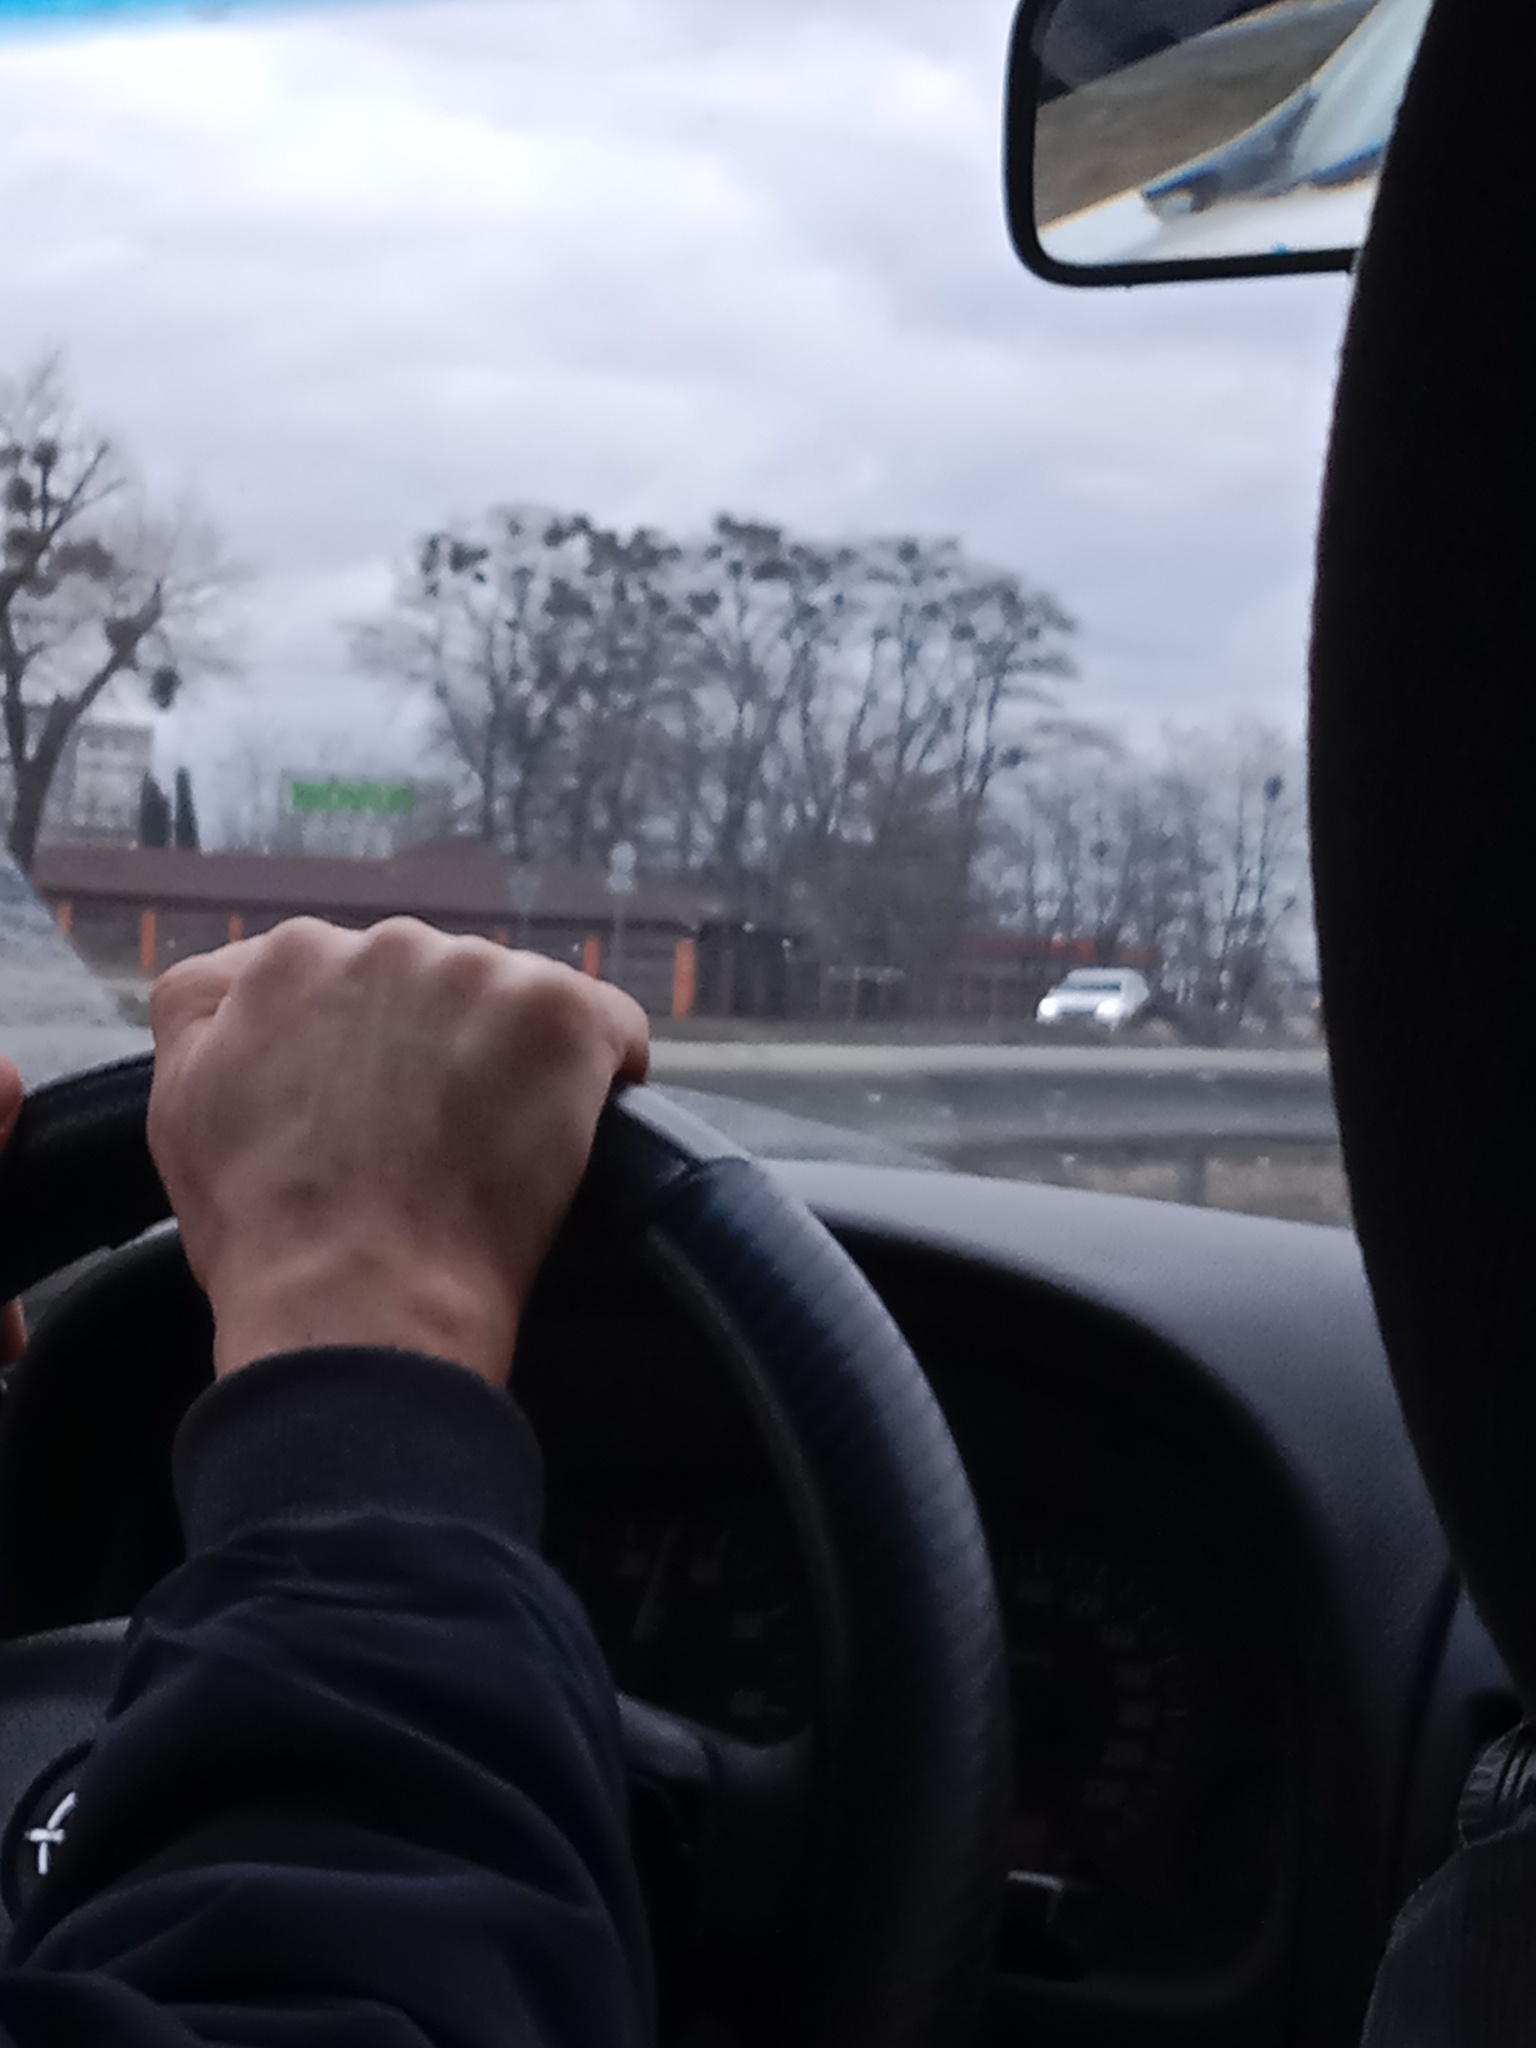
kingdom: Plantae
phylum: Tracheophyta
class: Magnoliopsida
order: Santalales
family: Viscaceae
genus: Viscum
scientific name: Viscum album
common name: Mistletoe
